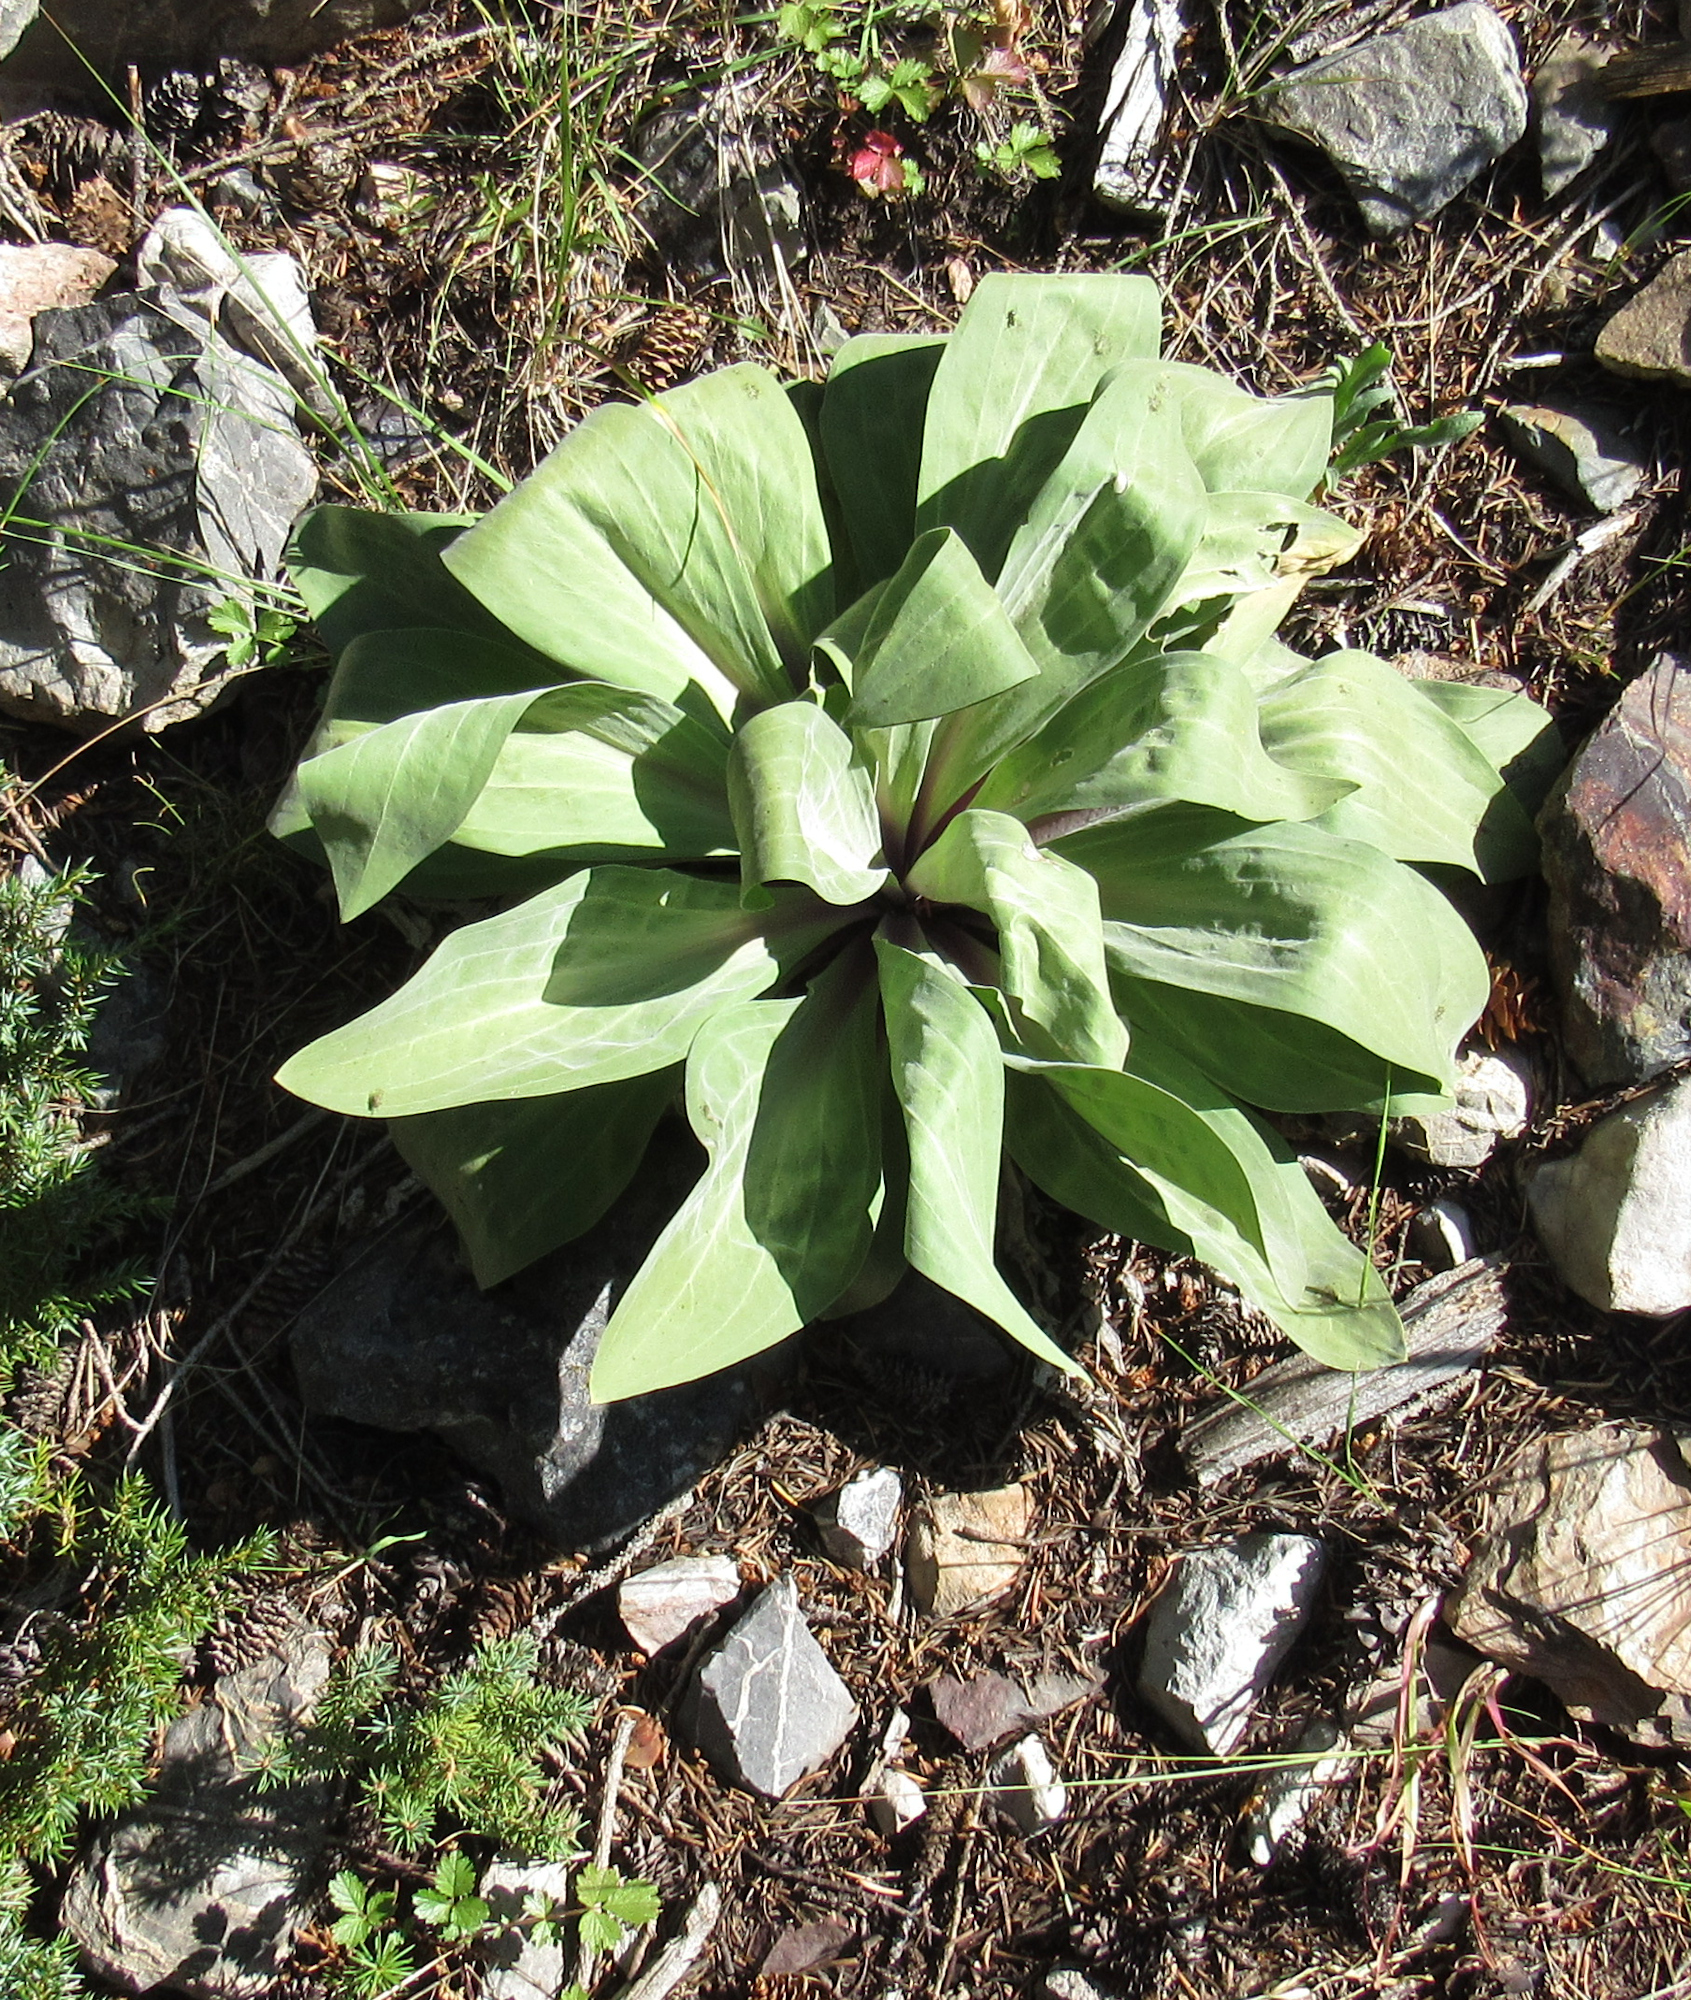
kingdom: Plantae
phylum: Tracheophyta
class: Magnoliopsida
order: Gentianales
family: Gentianaceae
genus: Frasera
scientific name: Frasera speciosa
